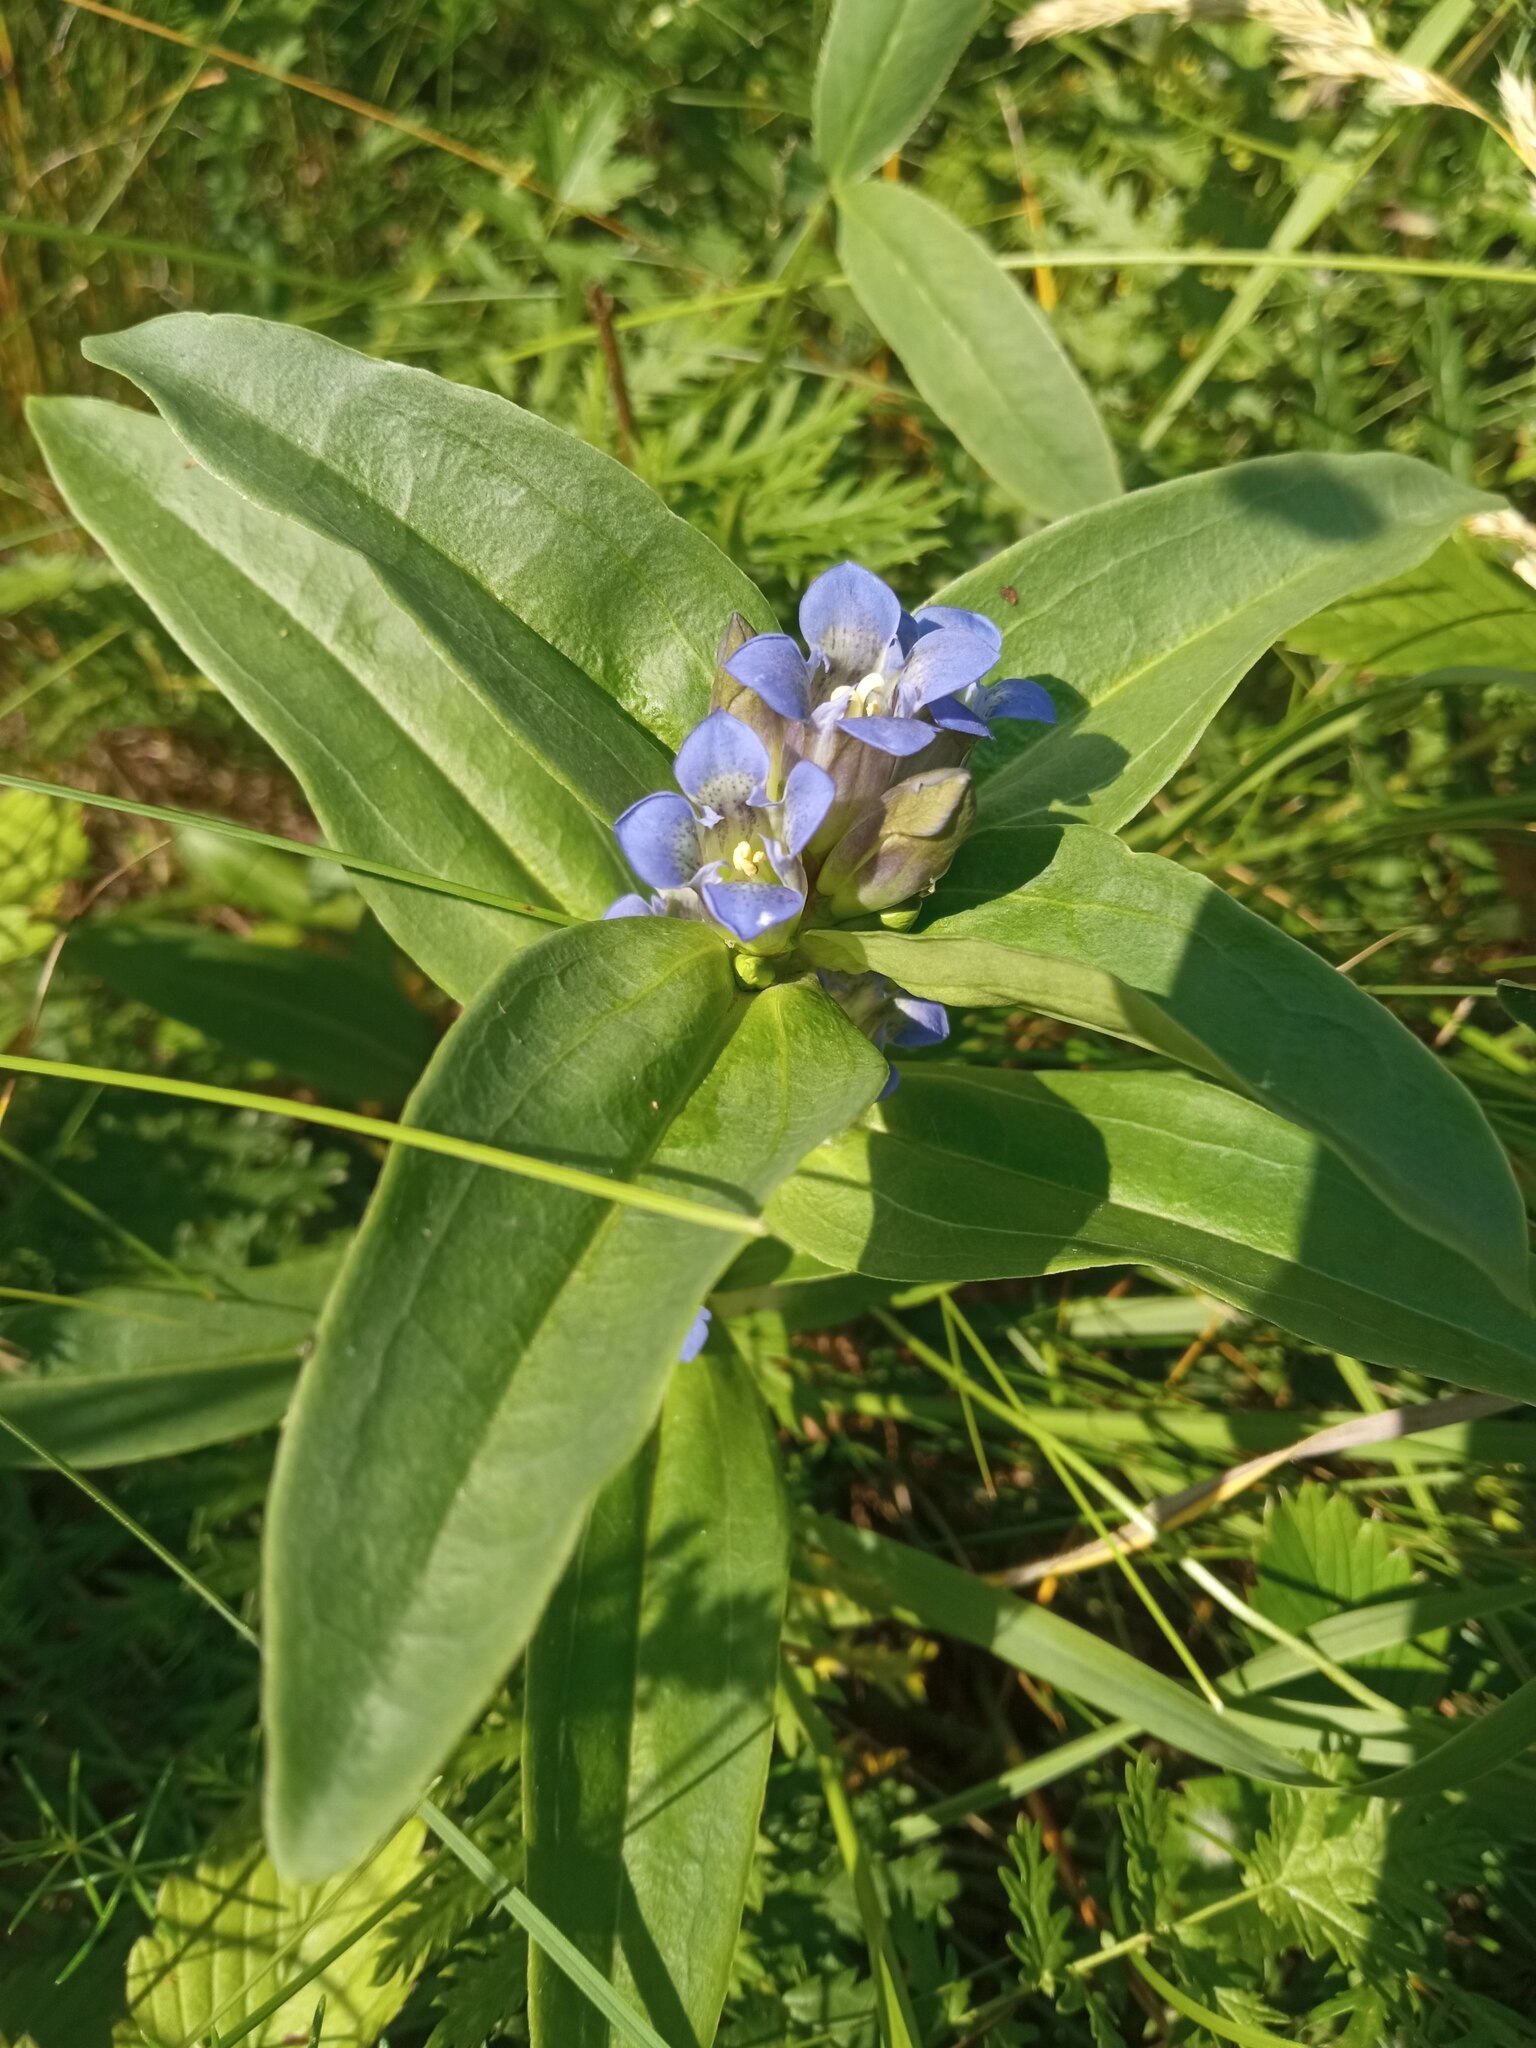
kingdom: Plantae
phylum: Tracheophyta
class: Magnoliopsida
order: Gentianales
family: Gentianaceae
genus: Gentiana
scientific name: Gentiana cruciata
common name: Cross gentian
